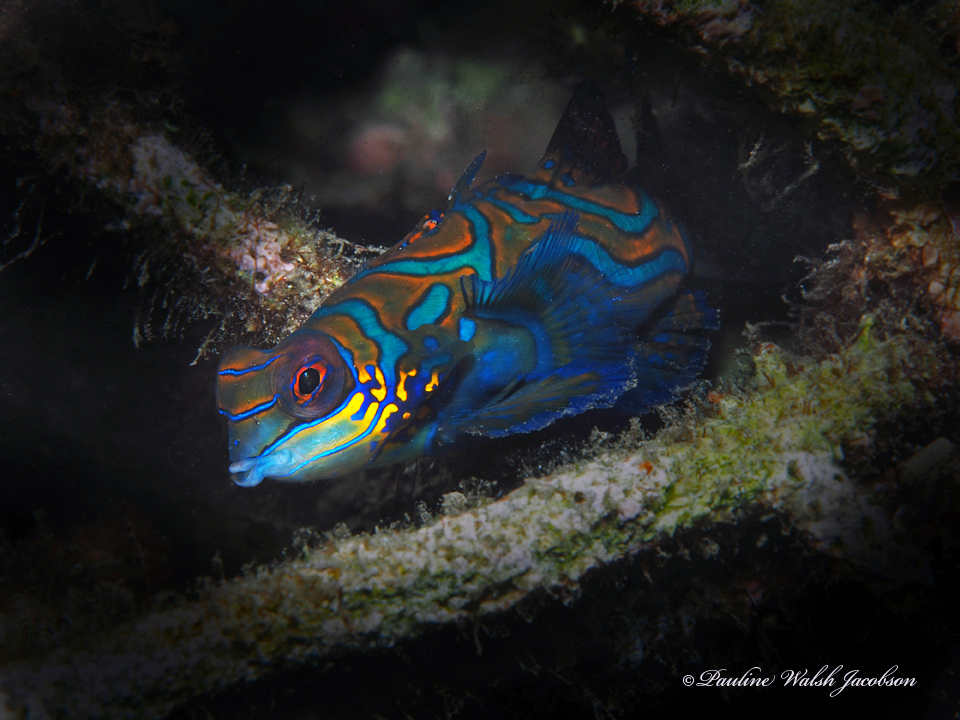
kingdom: Animalia
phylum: Chordata
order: Perciformes
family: Callionymidae
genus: Synchiropus
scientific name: Synchiropus splendidus
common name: Mandarinfish
